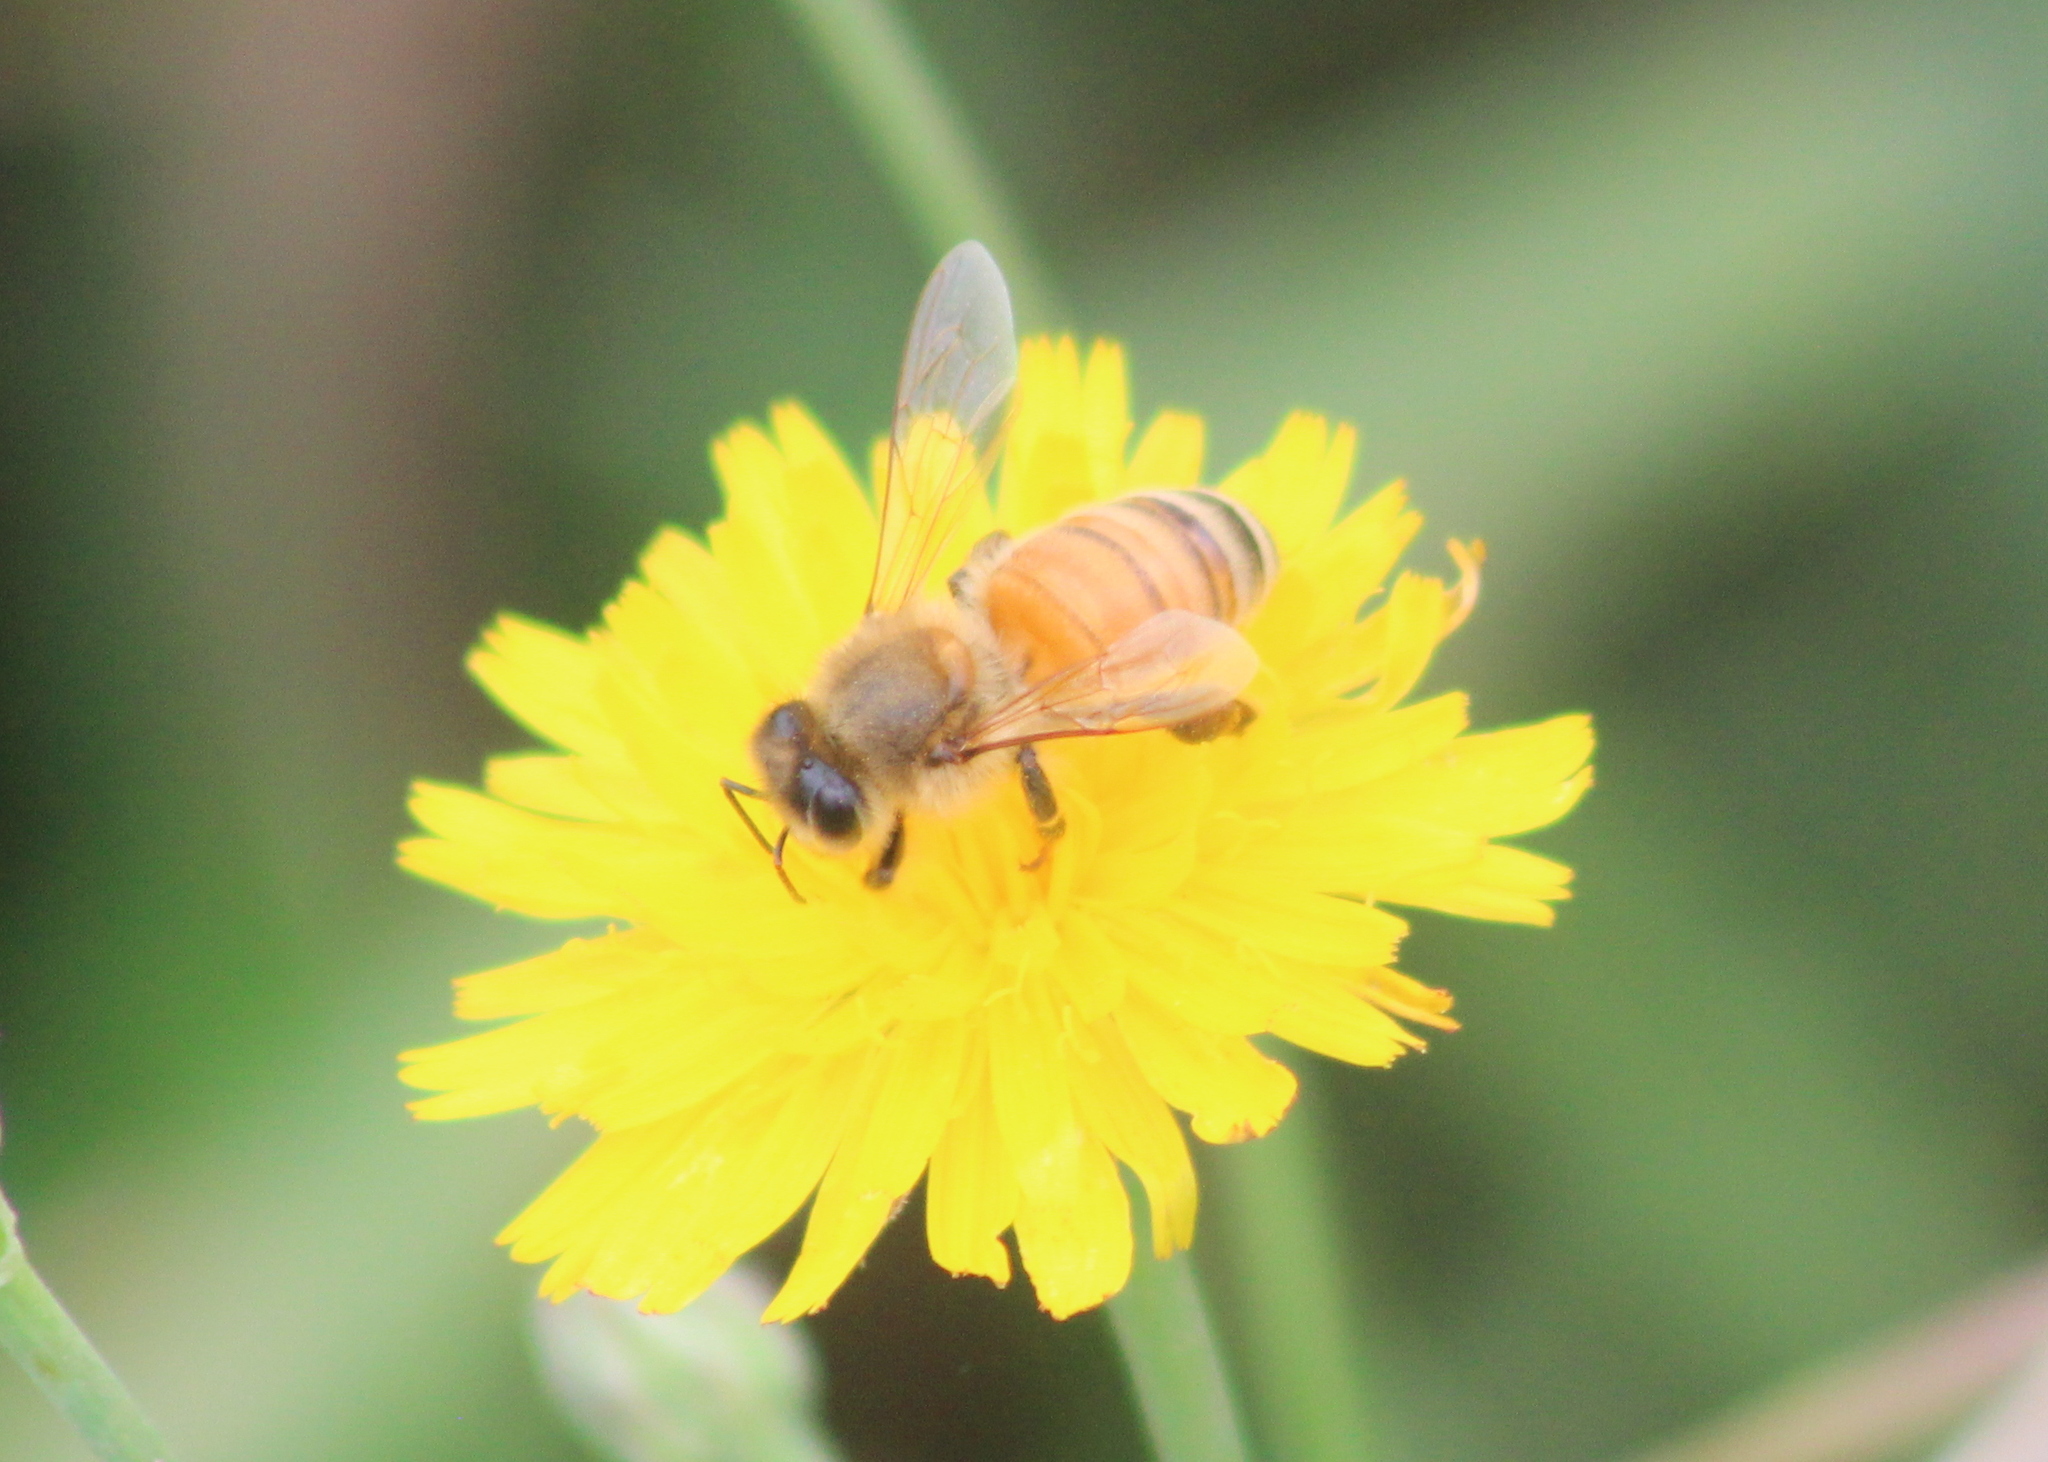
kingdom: Animalia
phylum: Arthropoda
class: Insecta
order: Hymenoptera
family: Apidae
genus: Apis
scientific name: Apis mellifera
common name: Honey bee
